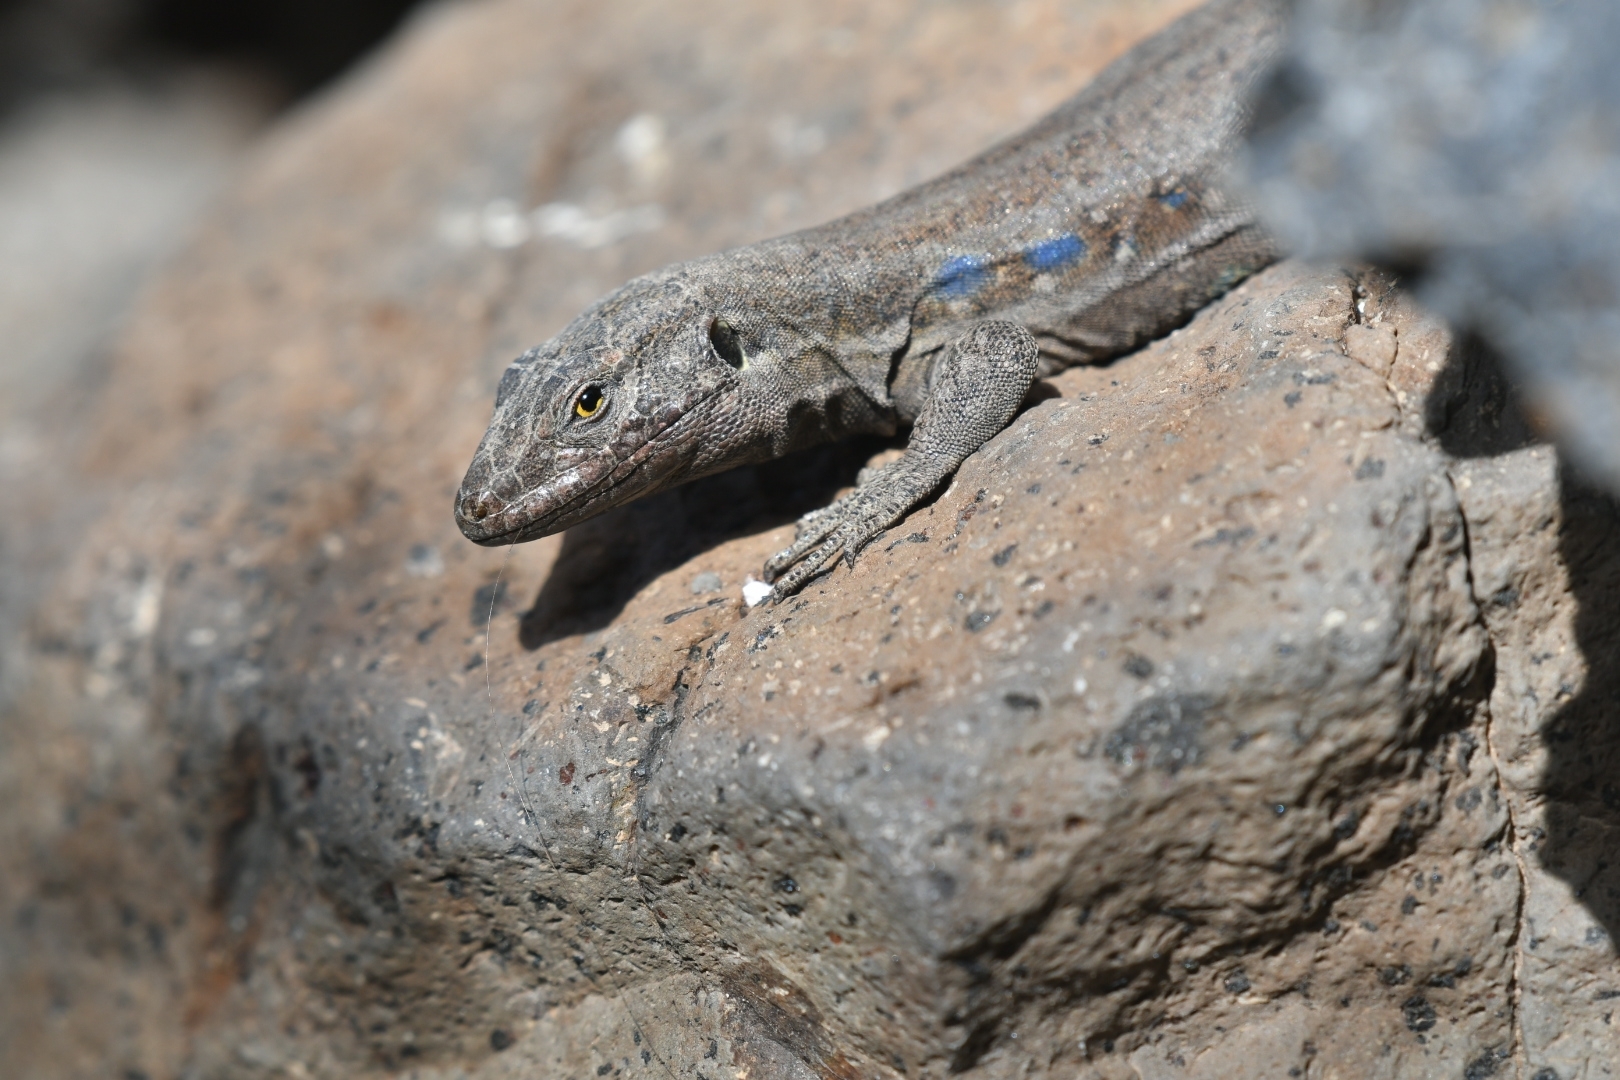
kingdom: Animalia
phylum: Chordata
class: Squamata
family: Lacertidae
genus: Gallotia
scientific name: Gallotia galloti
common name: Gallot's lizard
